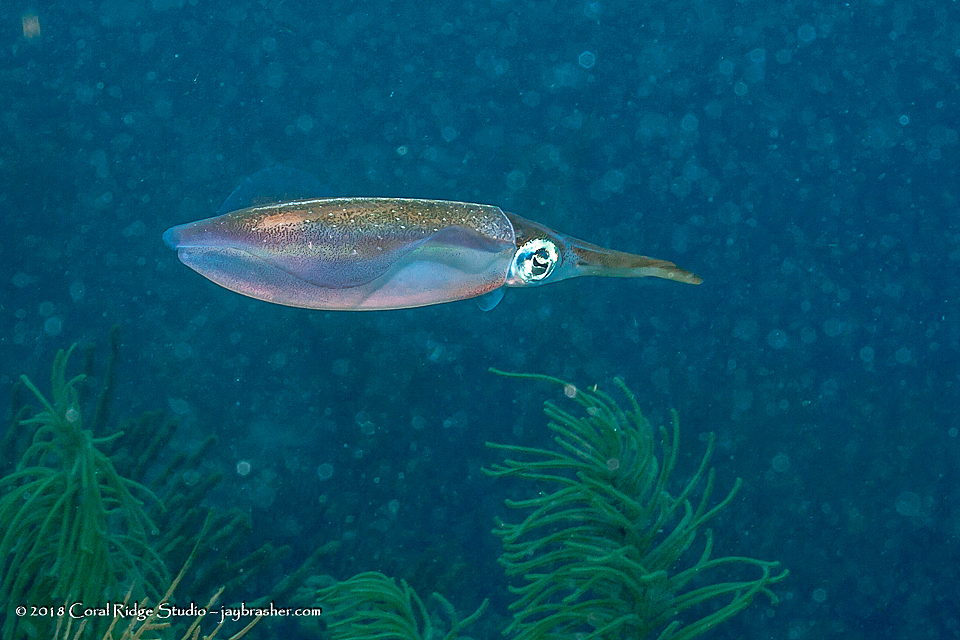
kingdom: Animalia
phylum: Mollusca
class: Cephalopoda
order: Myopsida
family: Loliginidae
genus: Sepioteuthis
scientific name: Sepioteuthis sepioidea
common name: Caribbean reef squid
